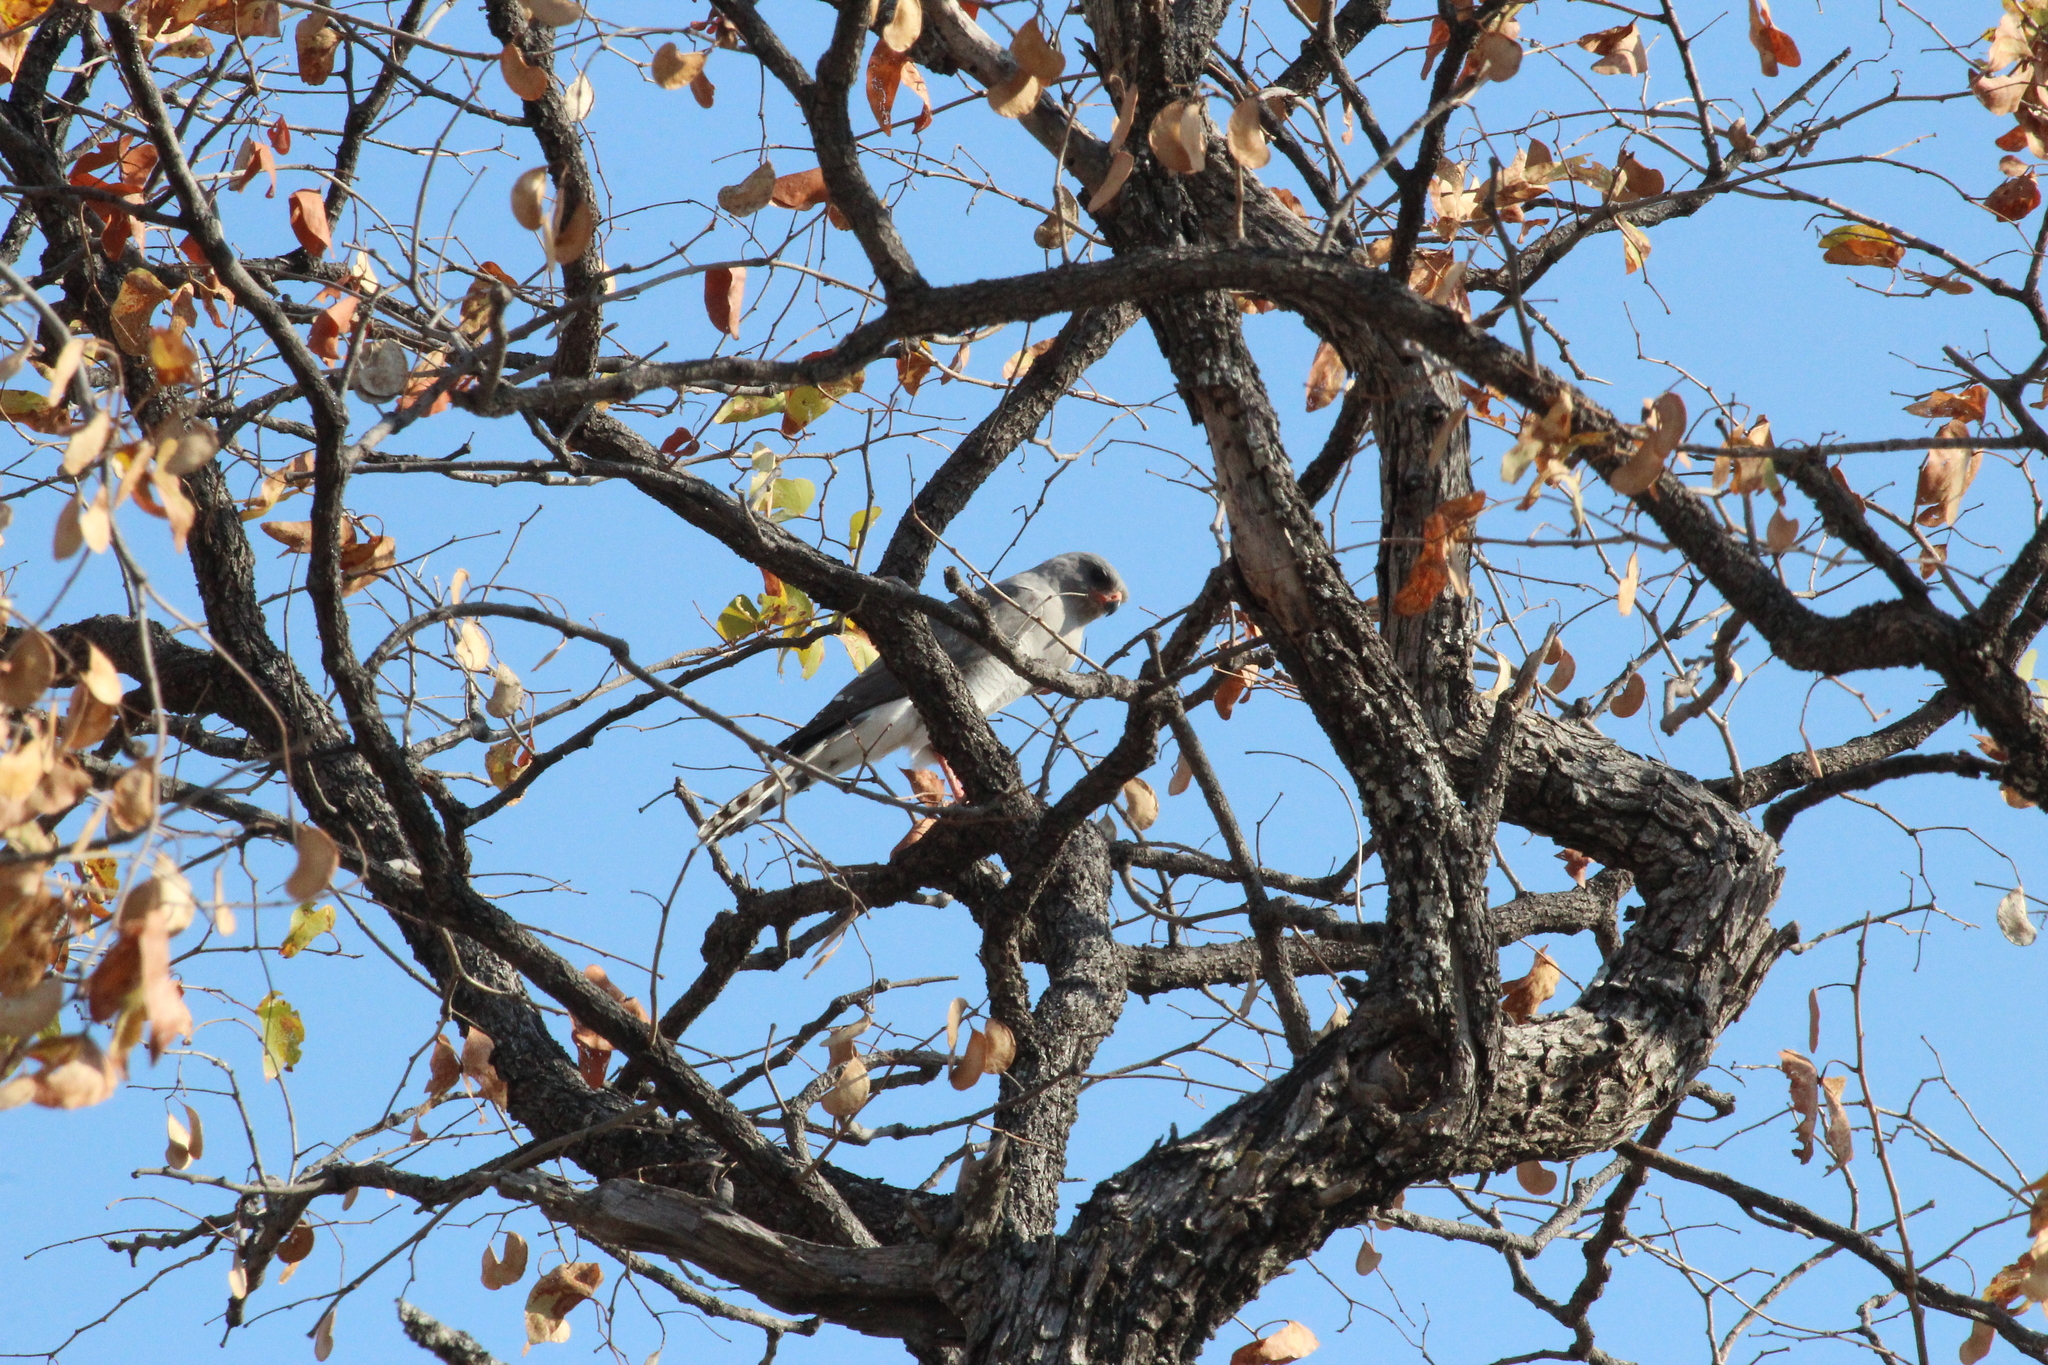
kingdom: Animalia
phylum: Chordata
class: Aves
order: Accipitriformes
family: Accipitridae
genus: Micronisus
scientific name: Micronisus gabar
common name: Gabar goshawk
